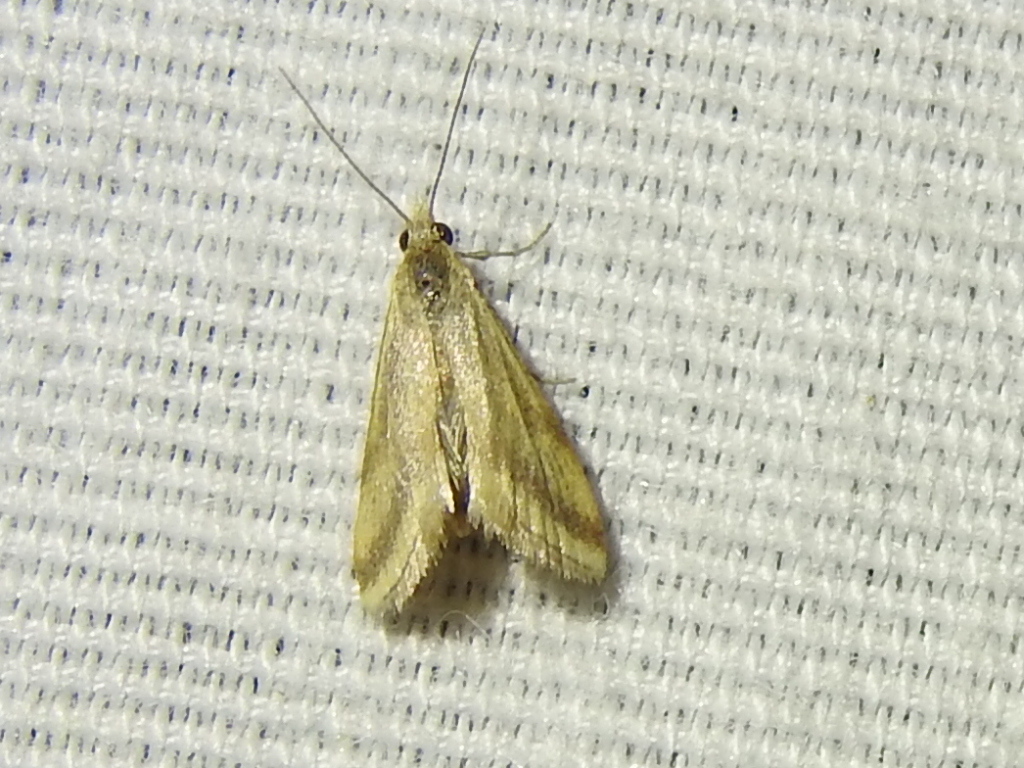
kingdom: Animalia
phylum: Arthropoda
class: Insecta
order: Lepidoptera
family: Crambidae
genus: Microtheoris
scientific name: Microtheoris vibicalis
